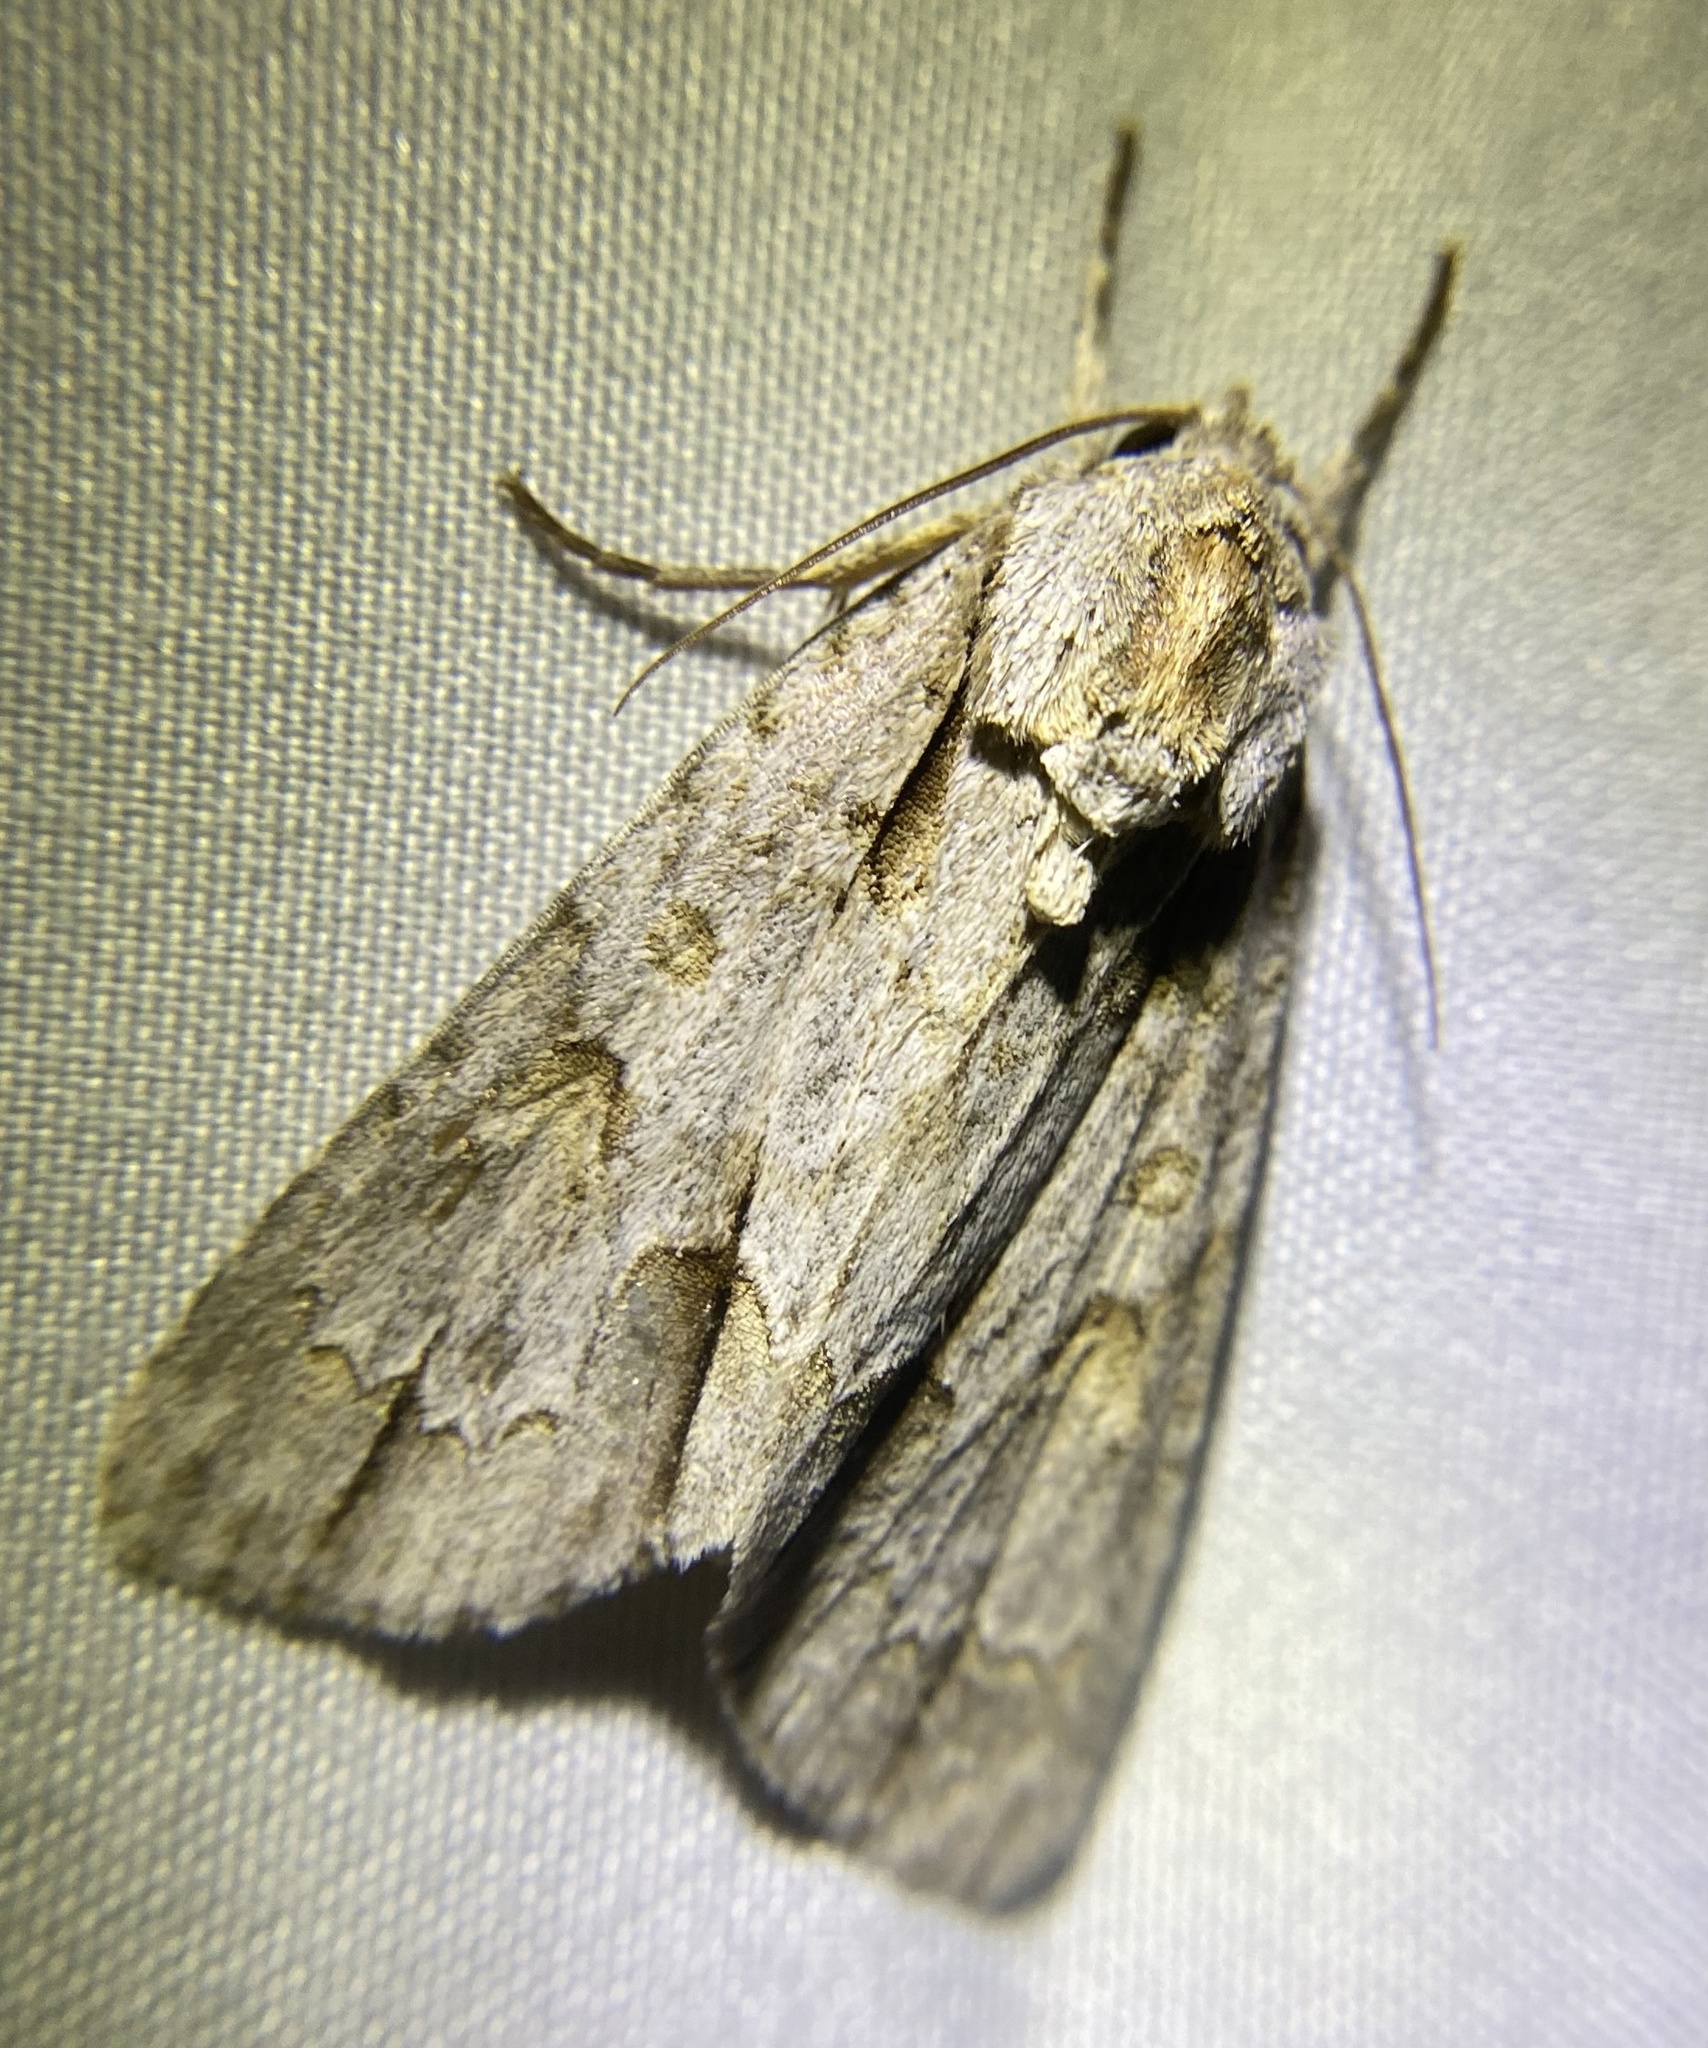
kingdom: Animalia
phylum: Arthropoda
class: Insecta
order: Lepidoptera
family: Noctuidae
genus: Acronicta
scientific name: Acronicta morula
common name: Ochre dagger
